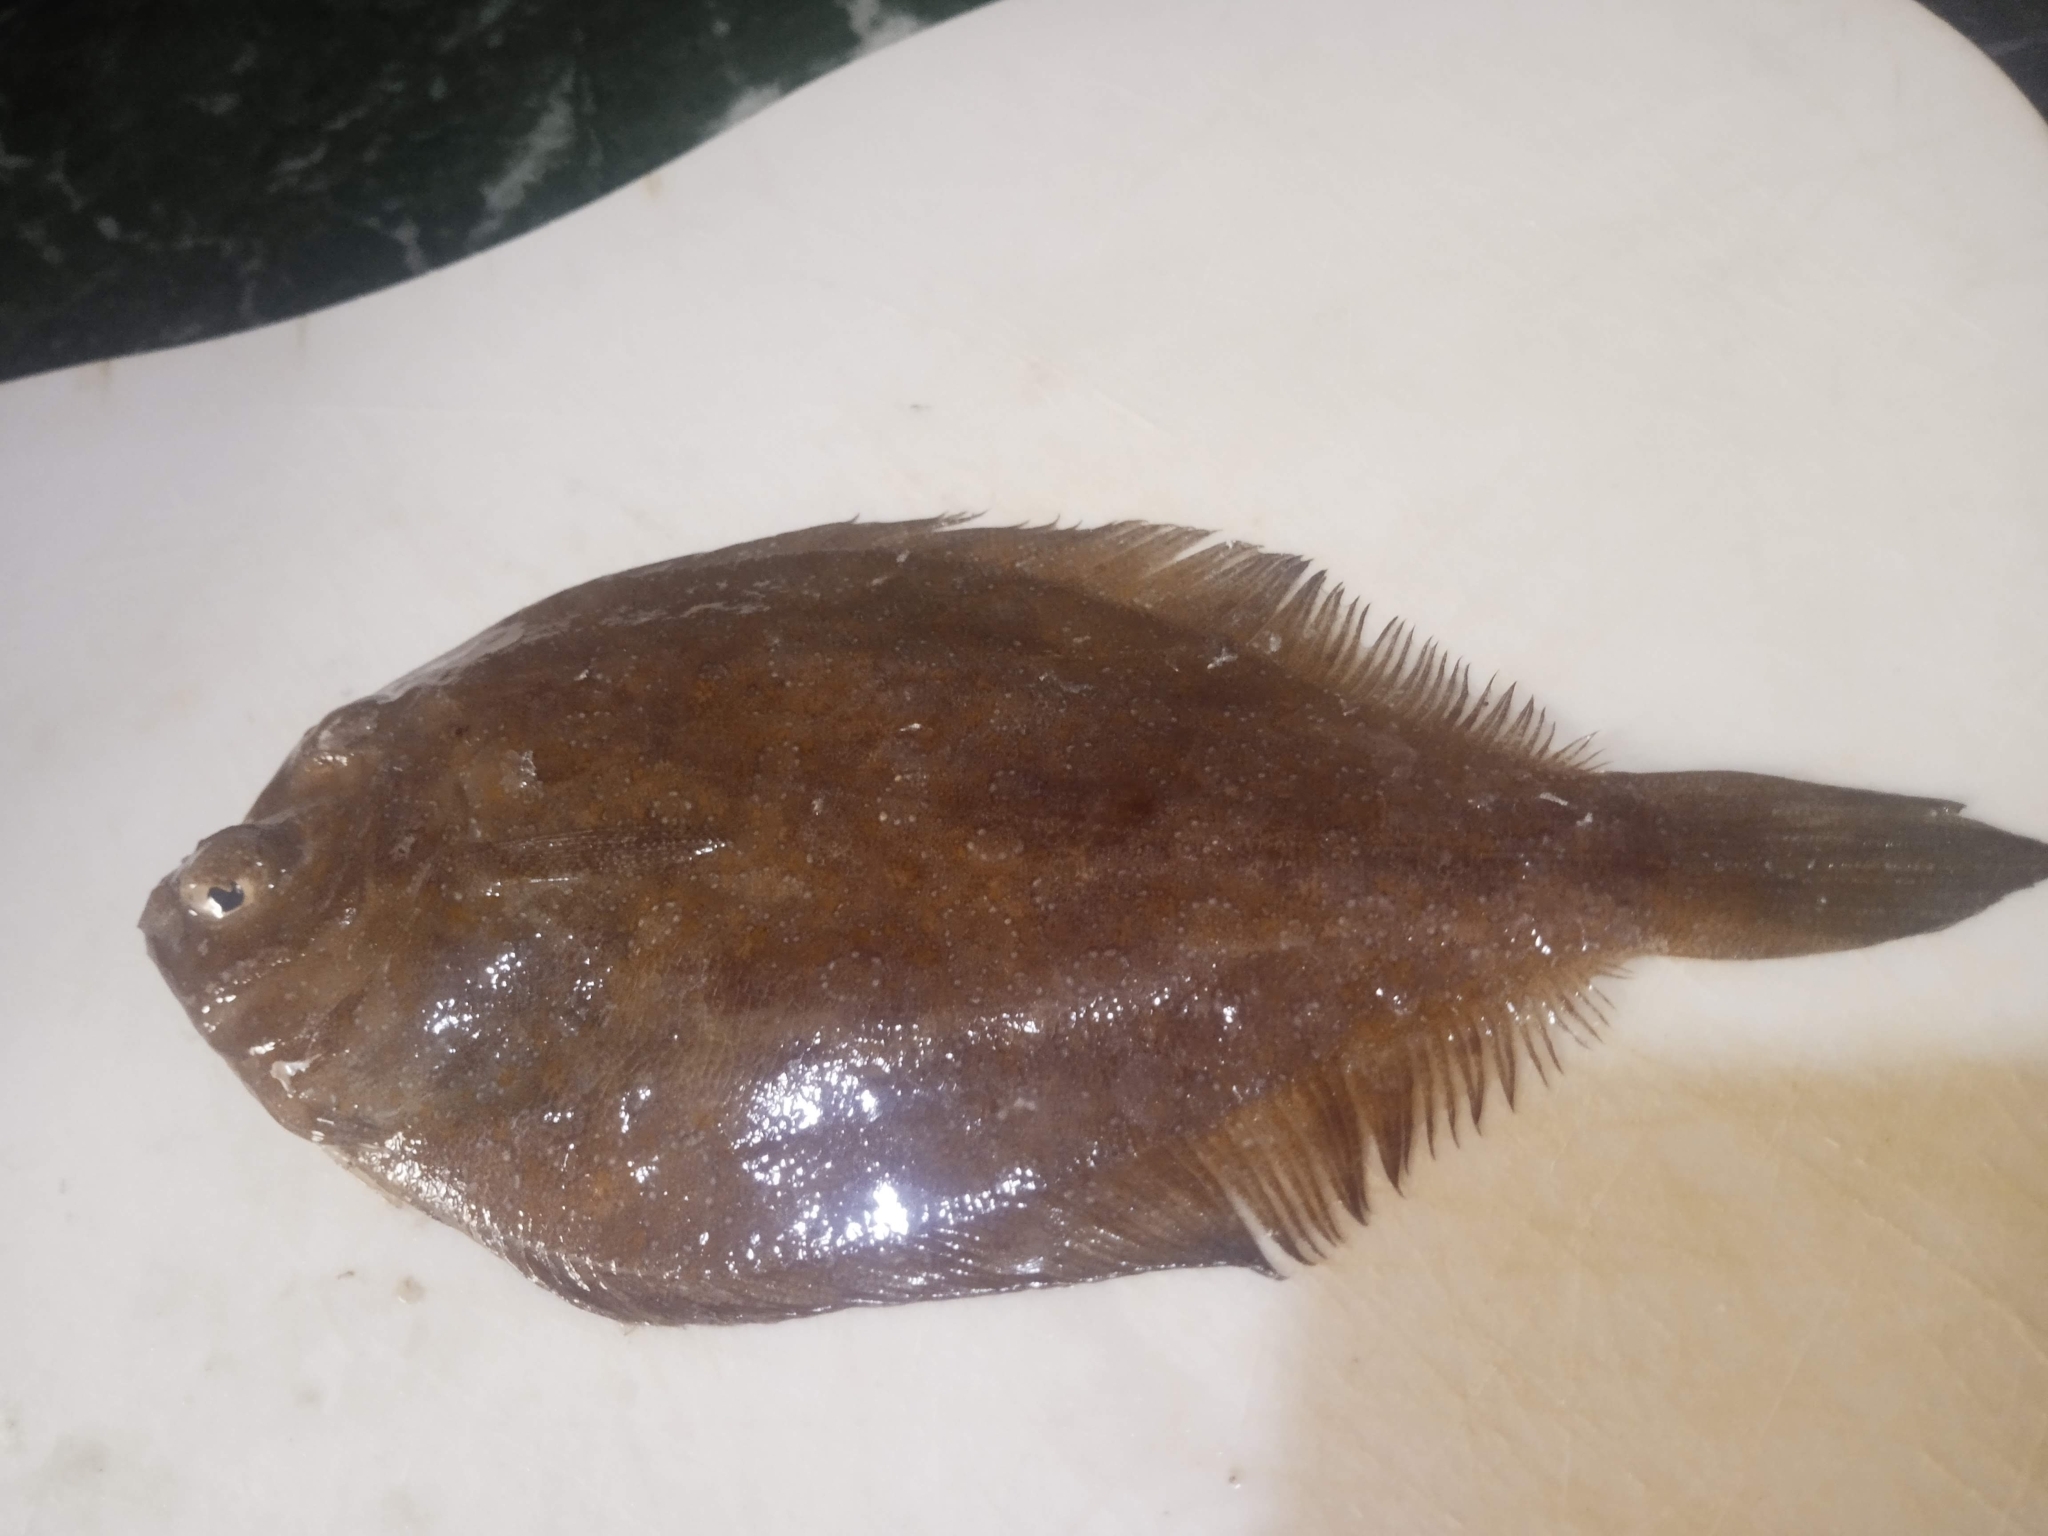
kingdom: Animalia
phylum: Chordata
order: Pleuronectiformes
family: Bothidae
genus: Bothus
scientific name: Bothus podas
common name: Wide-eyed flounder
